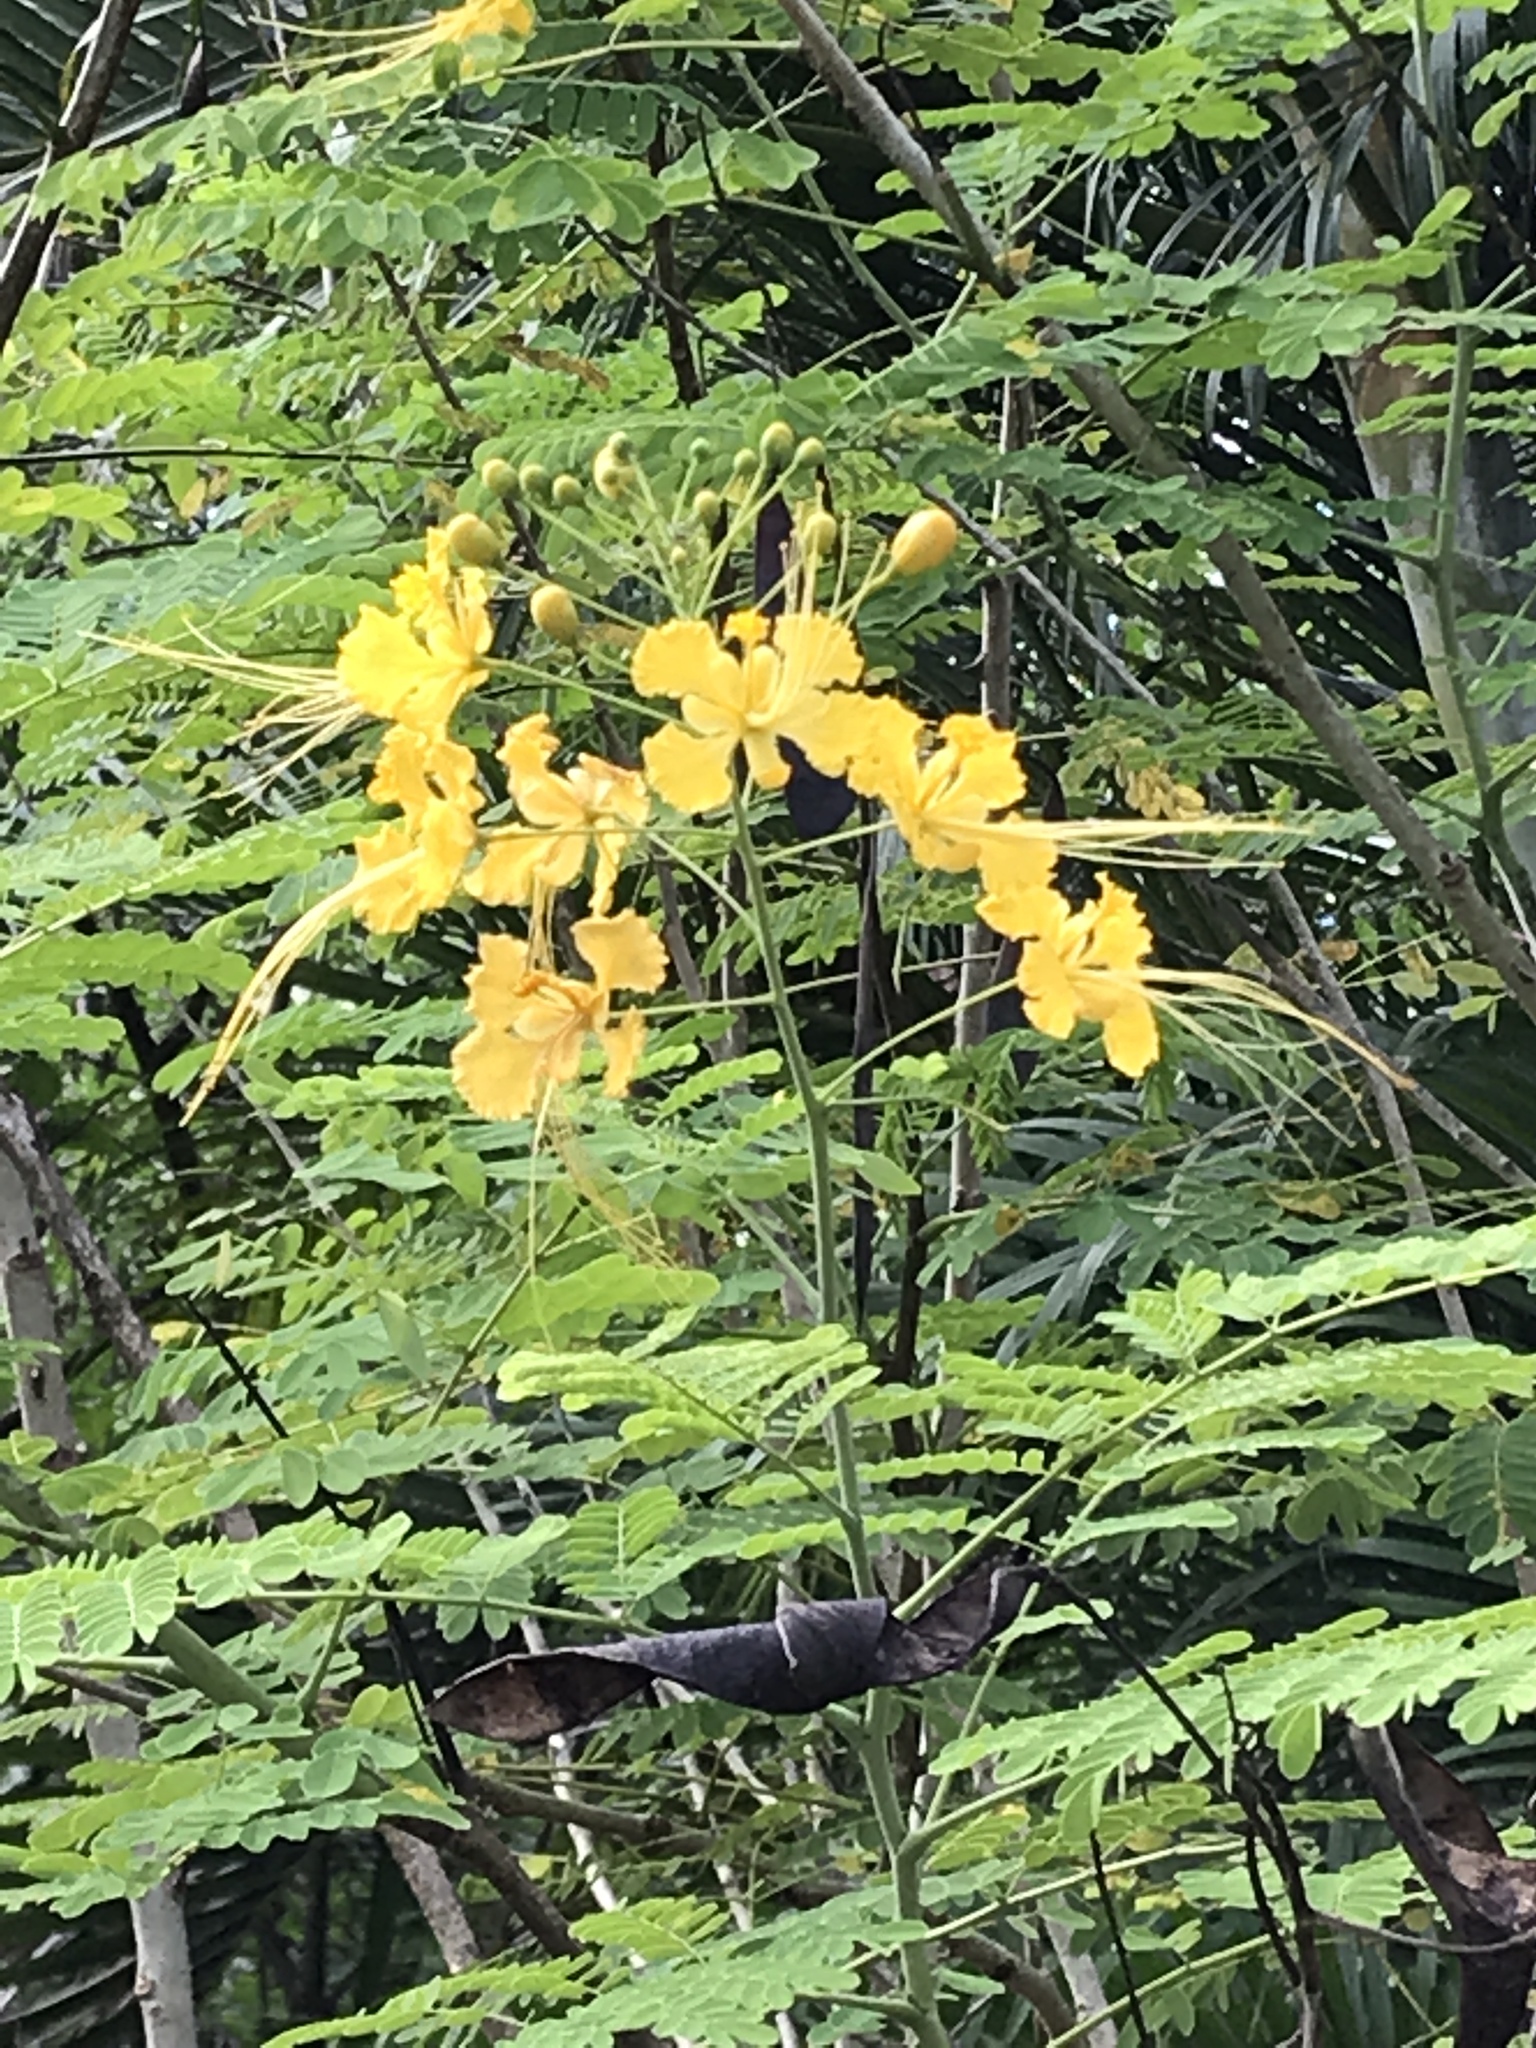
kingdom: Plantae
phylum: Tracheophyta
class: Magnoliopsida
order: Fabales
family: Fabaceae
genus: Caesalpinia
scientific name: Caesalpinia pulcherrima
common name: Pride-of-barbados
